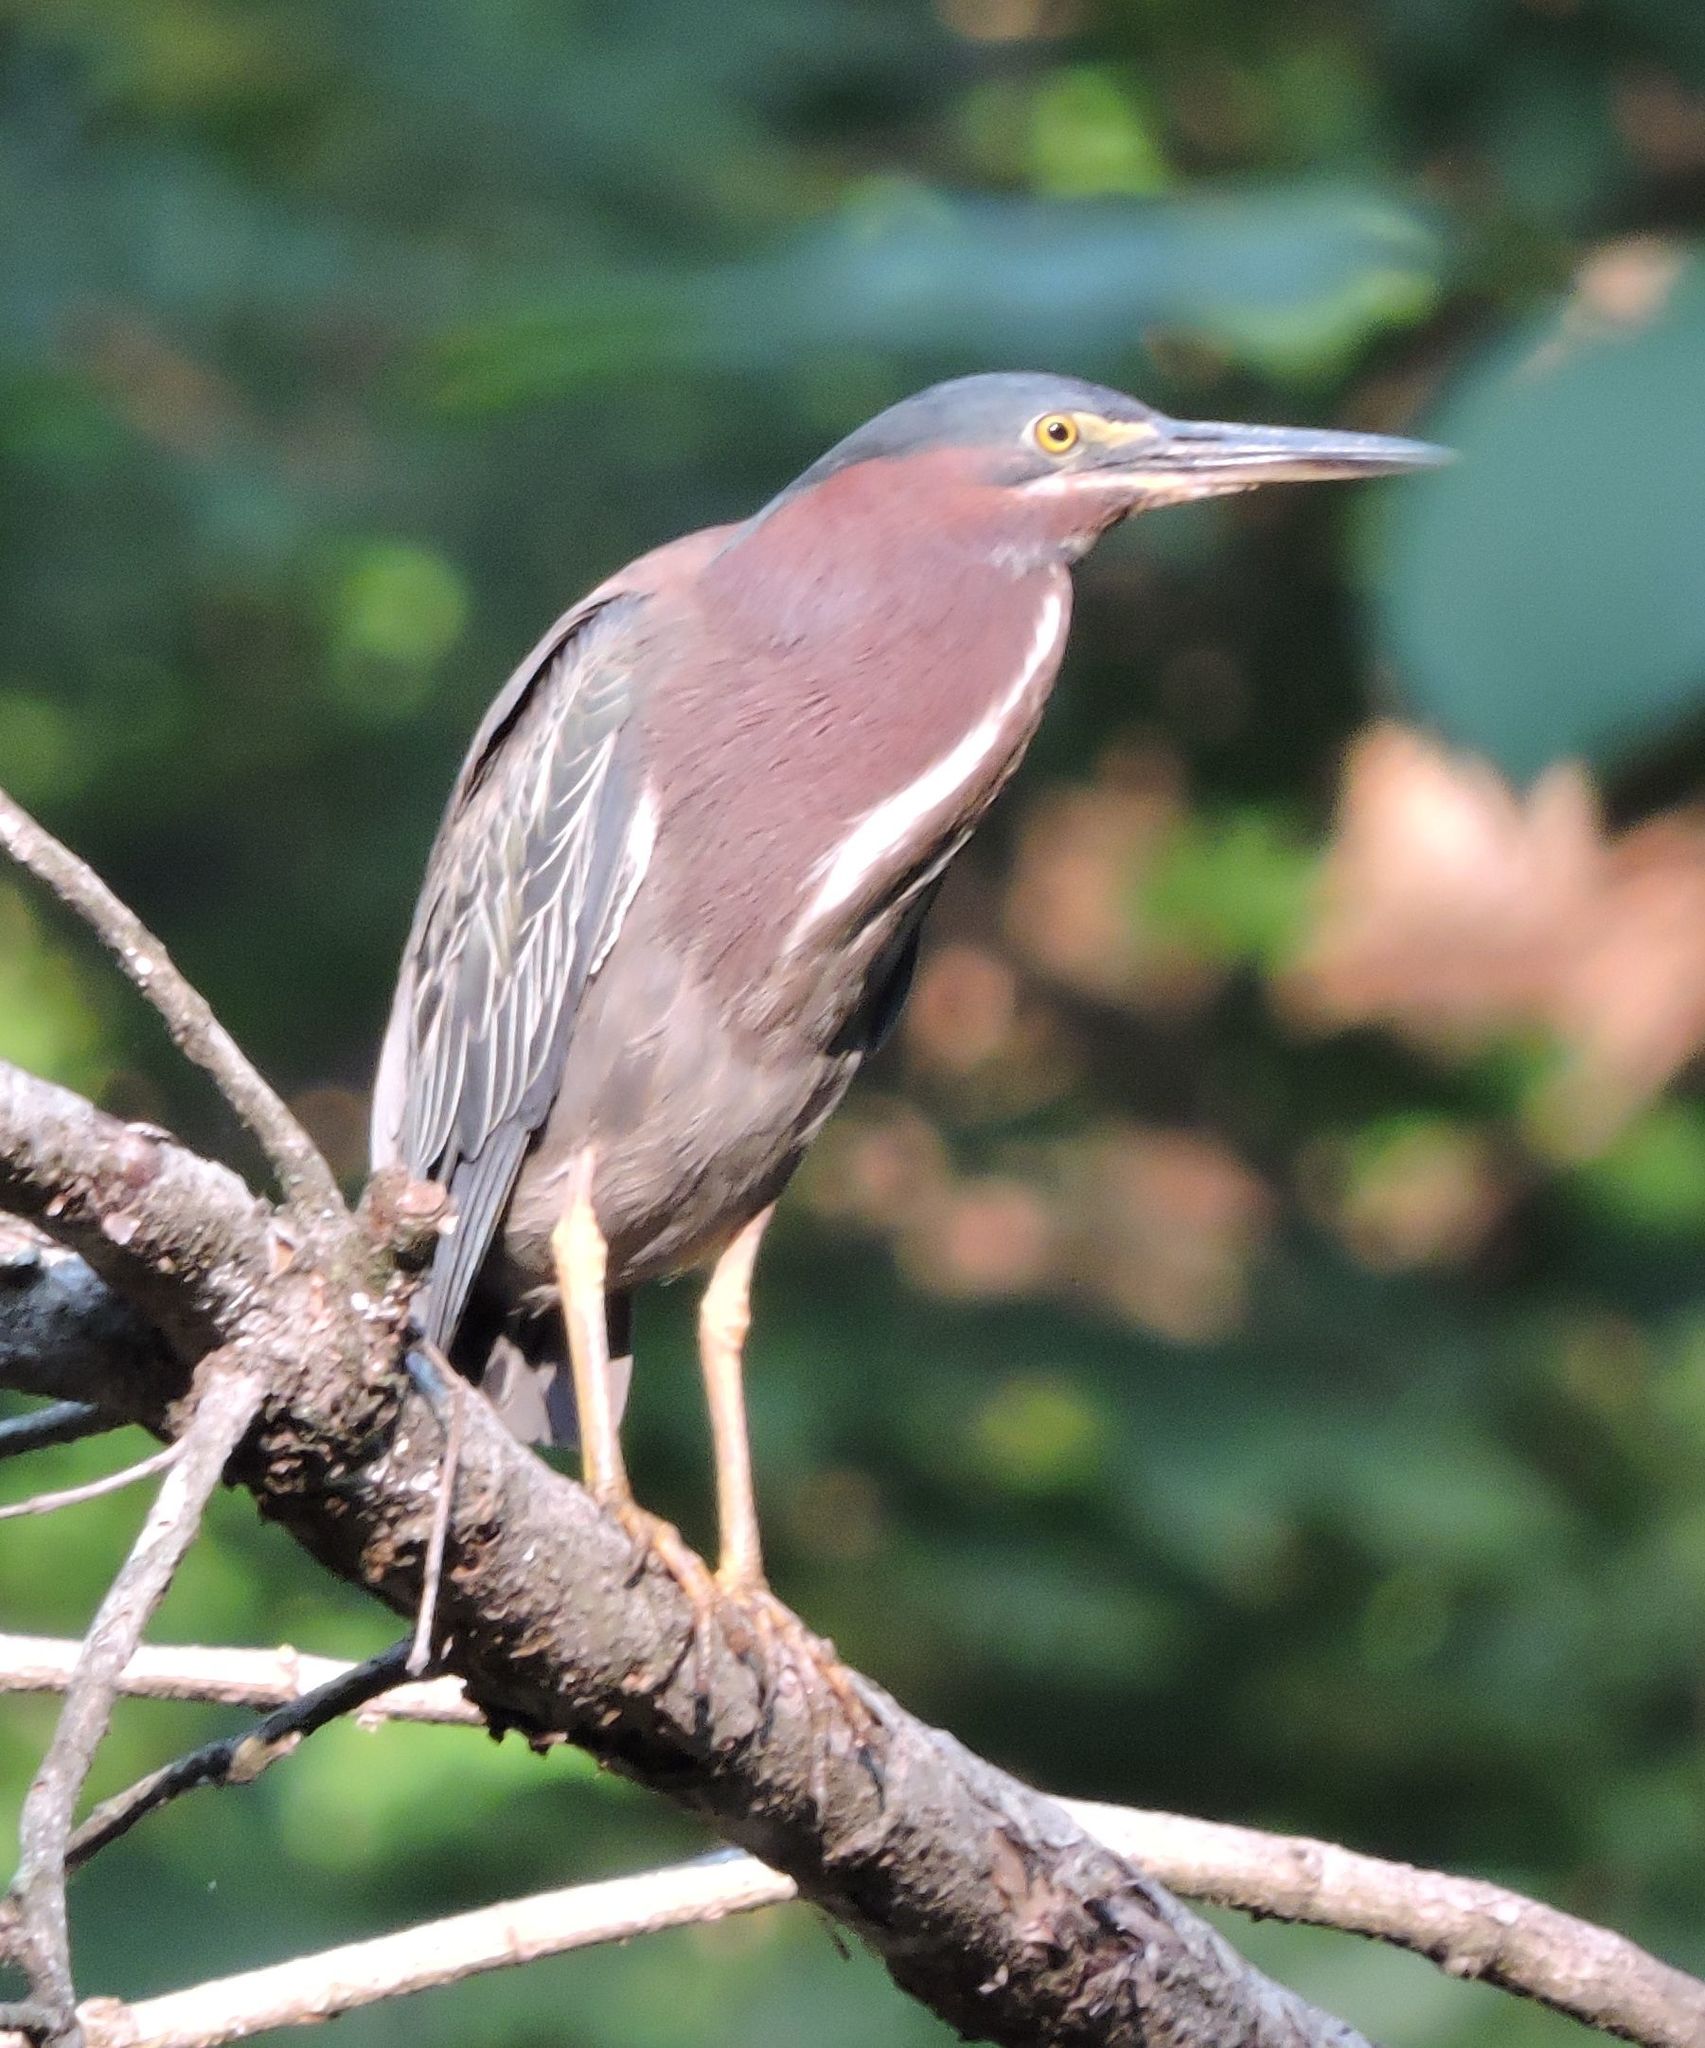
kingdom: Animalia
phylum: Chordata
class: Aves
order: Pelecaniformes
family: Ardeidae
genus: Butorides
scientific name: Butorides virescens
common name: Green heron
